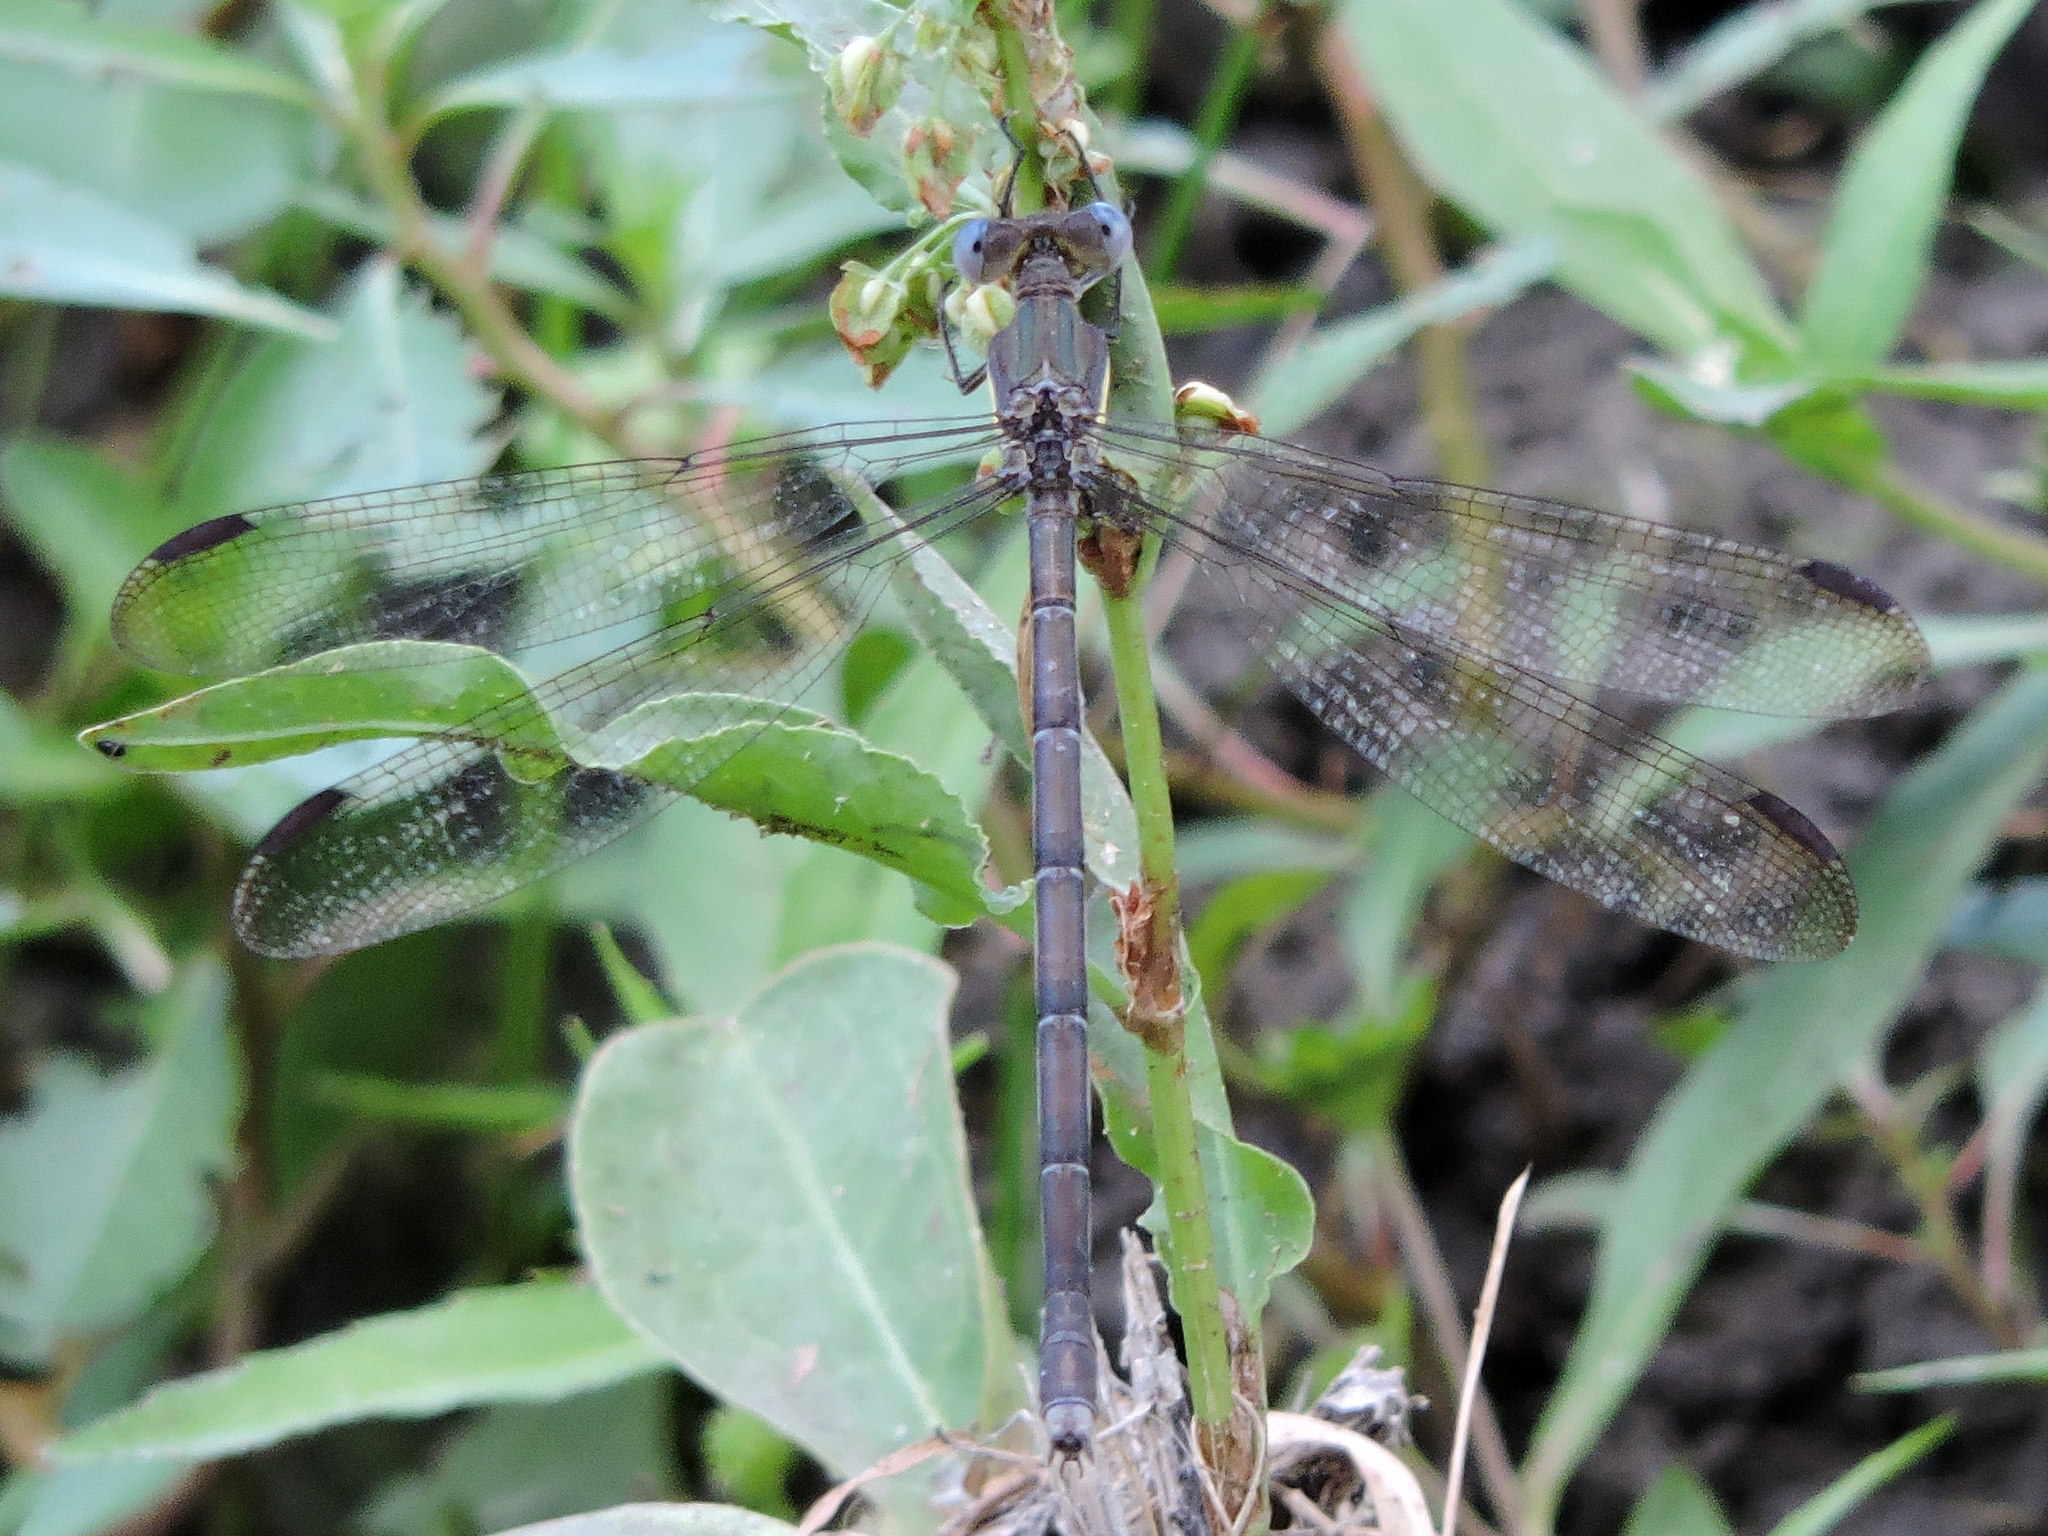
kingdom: Animalia
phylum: Arthropoda
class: Insecta
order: Odonata
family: Lestidae
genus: Archilestes
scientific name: Archilestes grandis
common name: Great spreadwing
